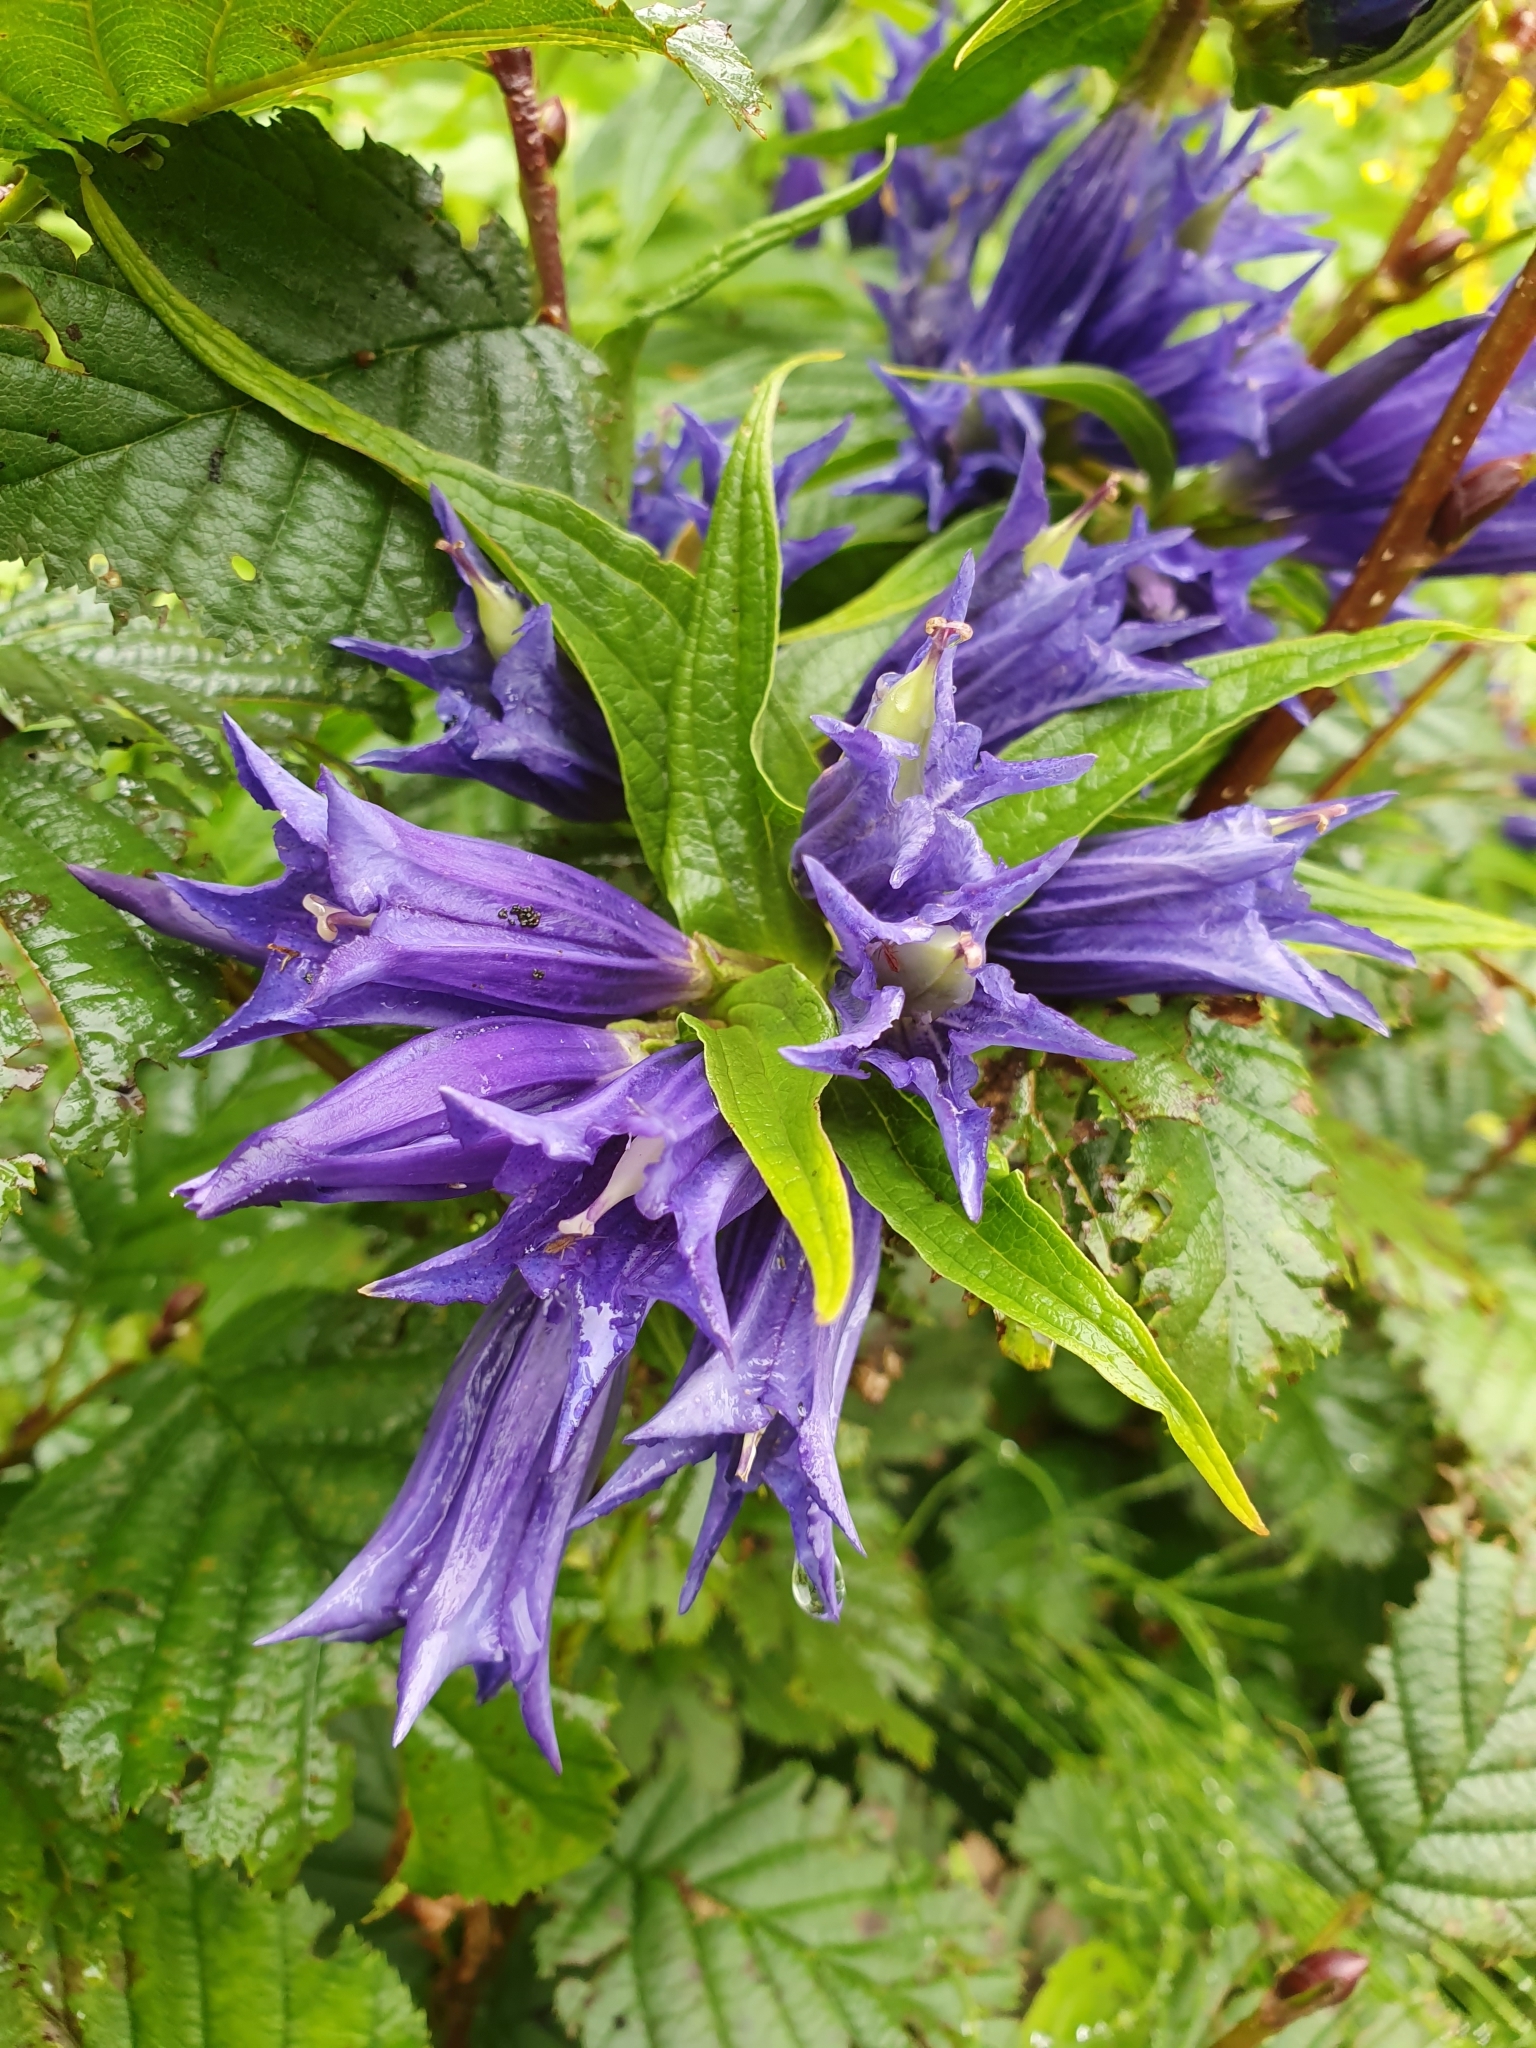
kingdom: Plantae
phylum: Tracheophyta
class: Magnoliopsida
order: Gentianales
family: Gentianaceae
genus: Gentiana
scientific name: Gentiana asclepiadea
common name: Willow gentian
